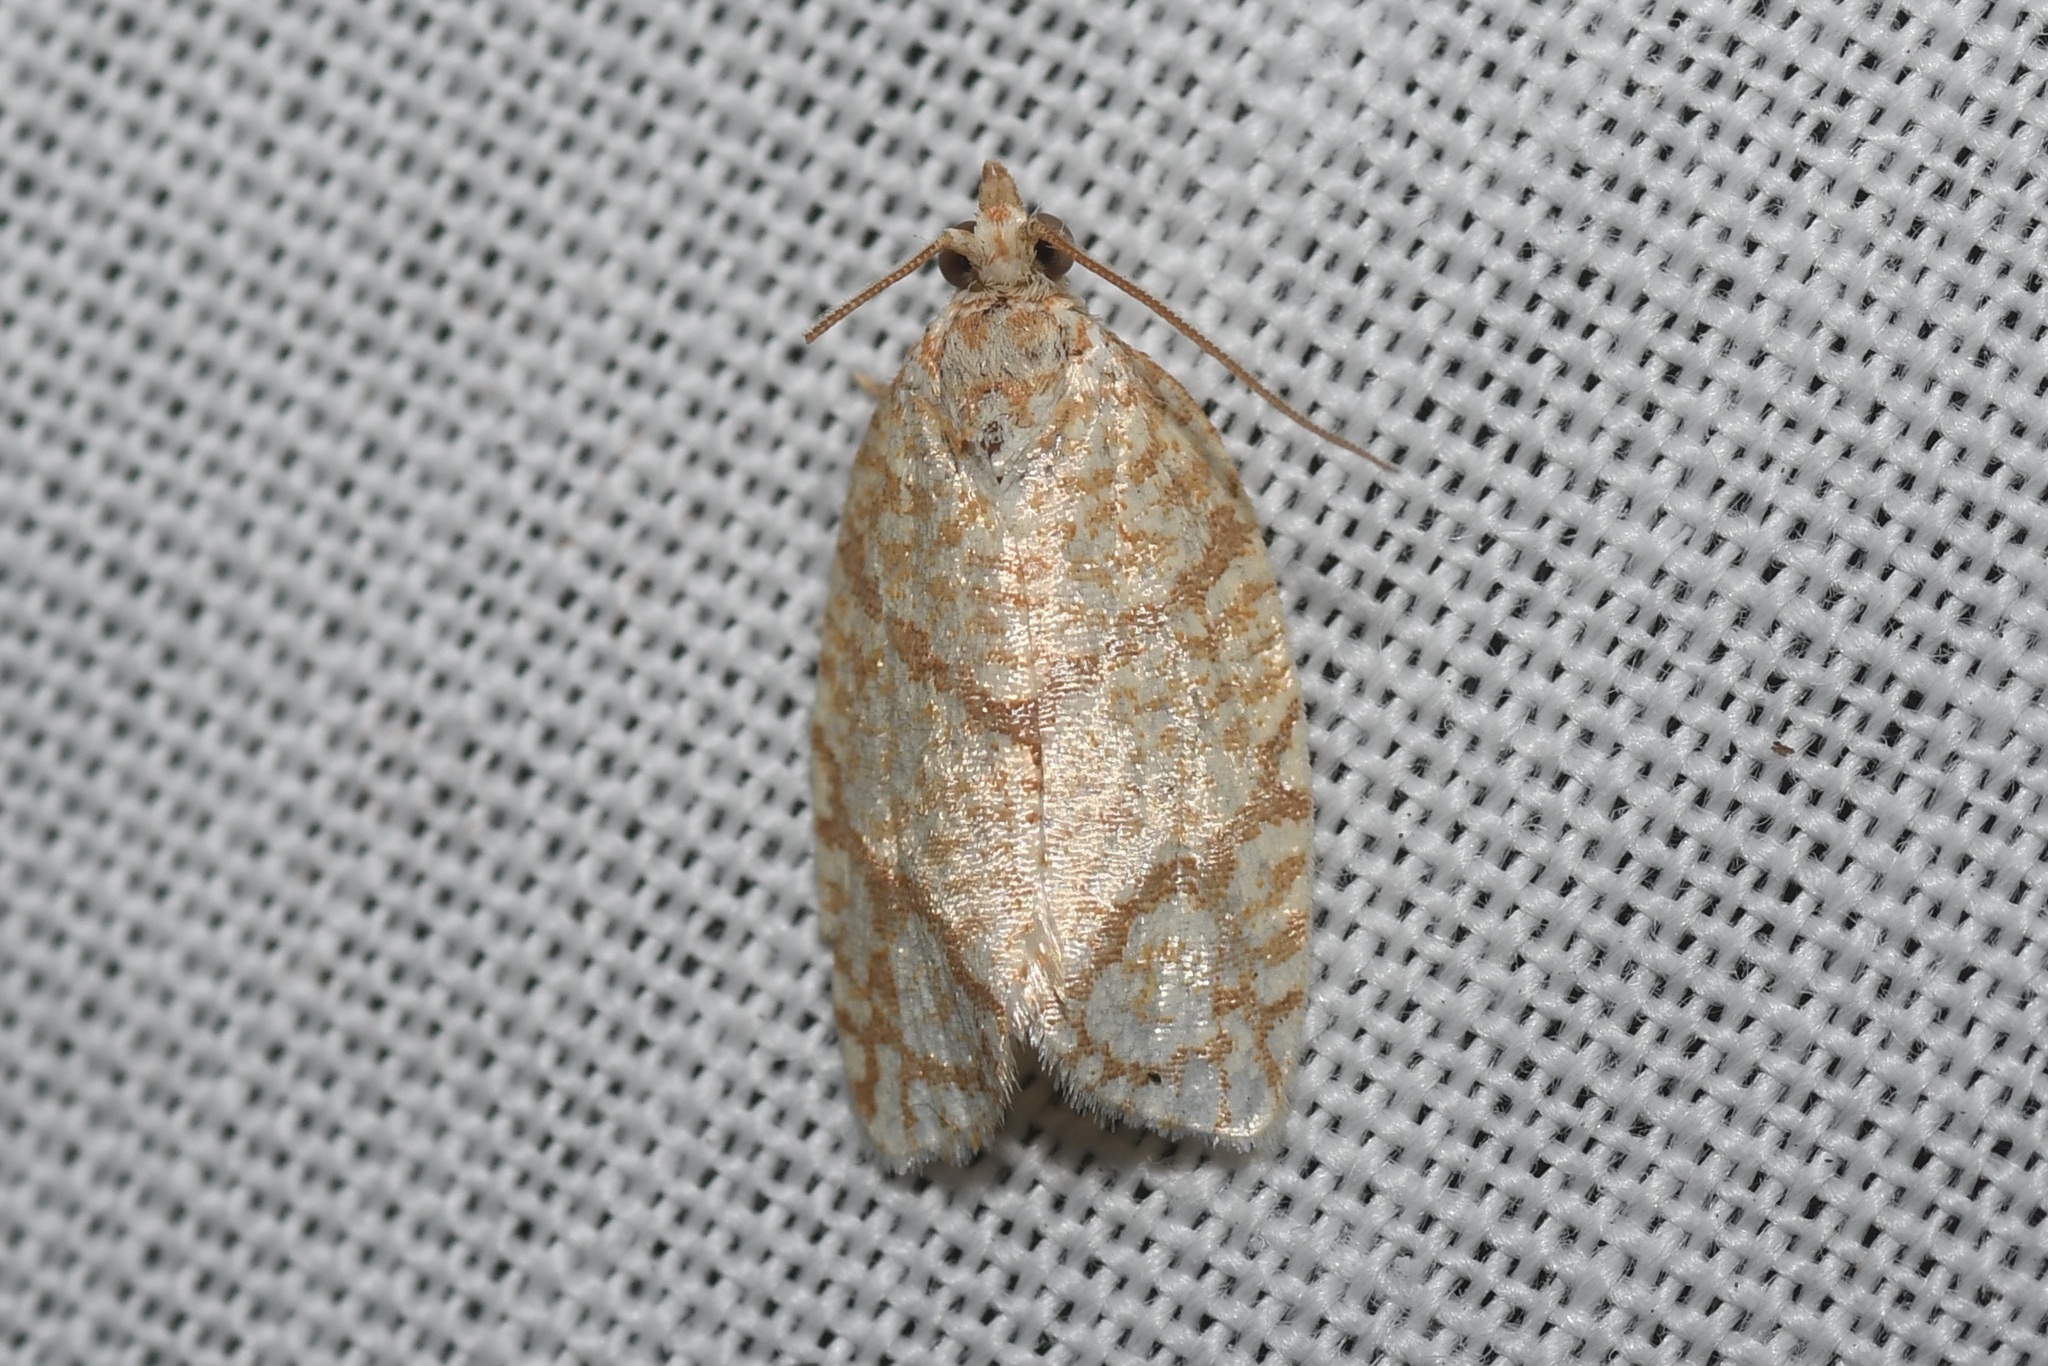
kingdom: Animalia
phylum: Arthropoda
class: Insecta
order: Lepidoptera
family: Tortricidae
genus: Argyrotaenia
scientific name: Argyrotaenia quercifoliana
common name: Yellow-winged oak leafroller moth
